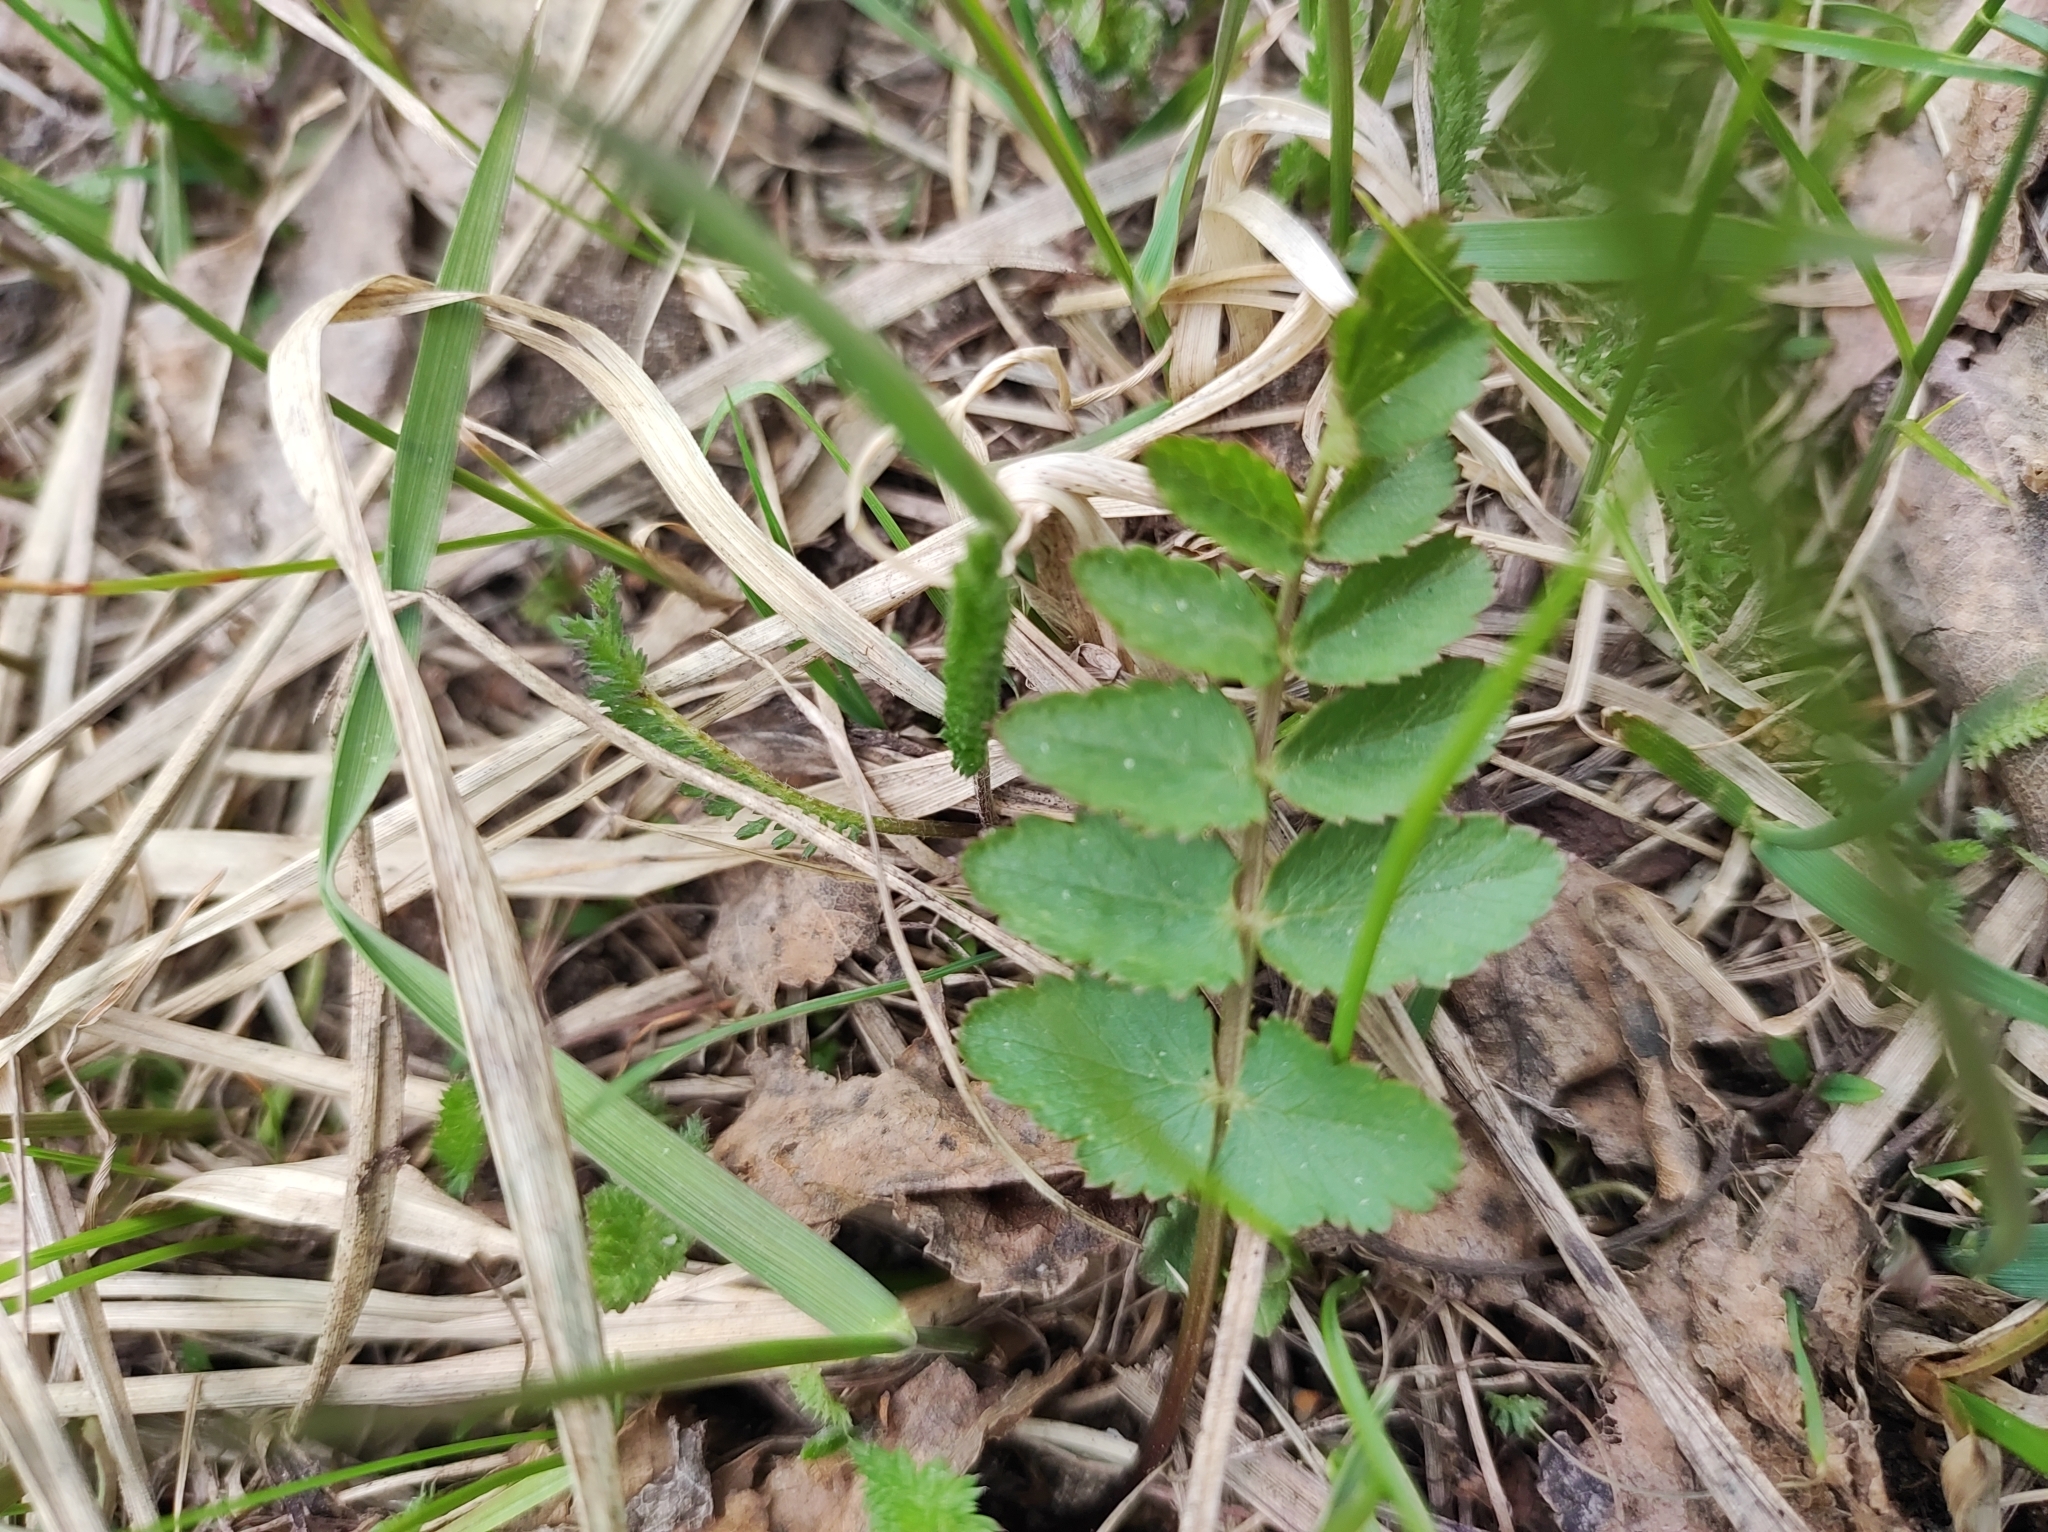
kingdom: Plantae
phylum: Tracheophyta
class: Magnoliopsida
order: Apiales
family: Apiaceae
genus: Pimpinella
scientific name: Pimpinella saxifraga
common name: Burnet-saxifrage
